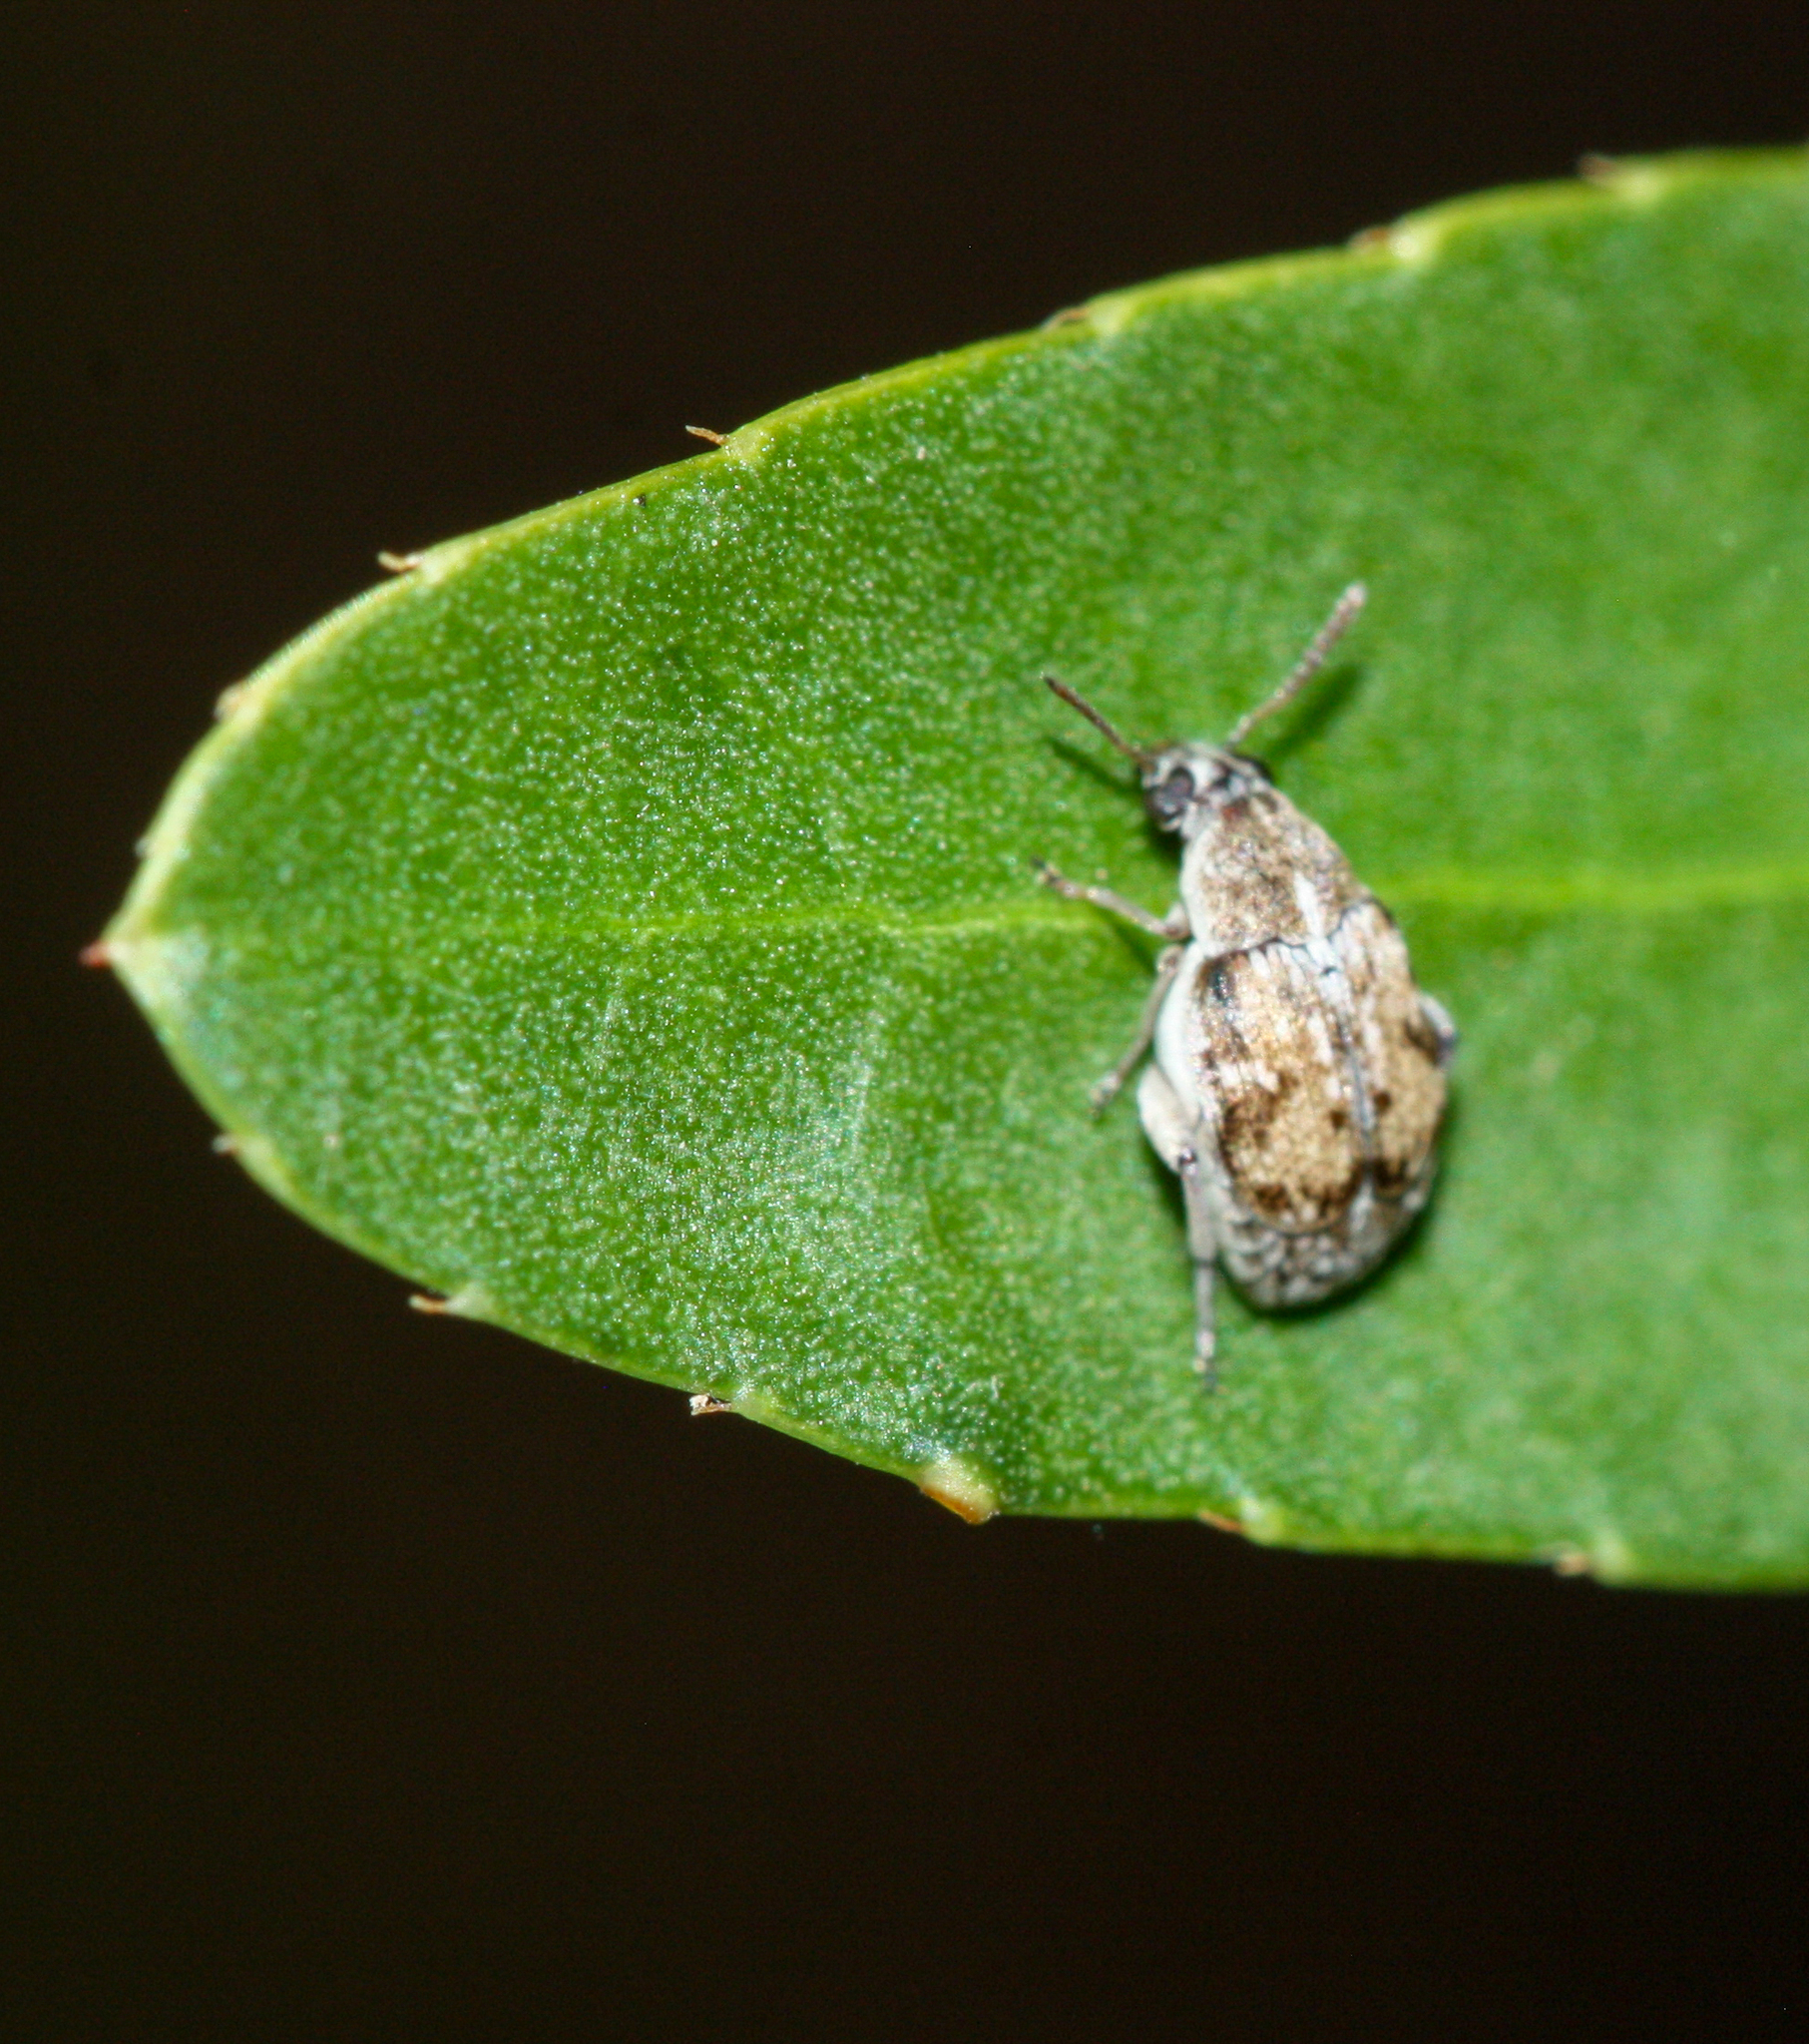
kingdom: Animalia
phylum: Arthropoda
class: Insecta
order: Coleoptera
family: Chrysomelidae
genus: Algarobius
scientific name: Algarobius prosopis
